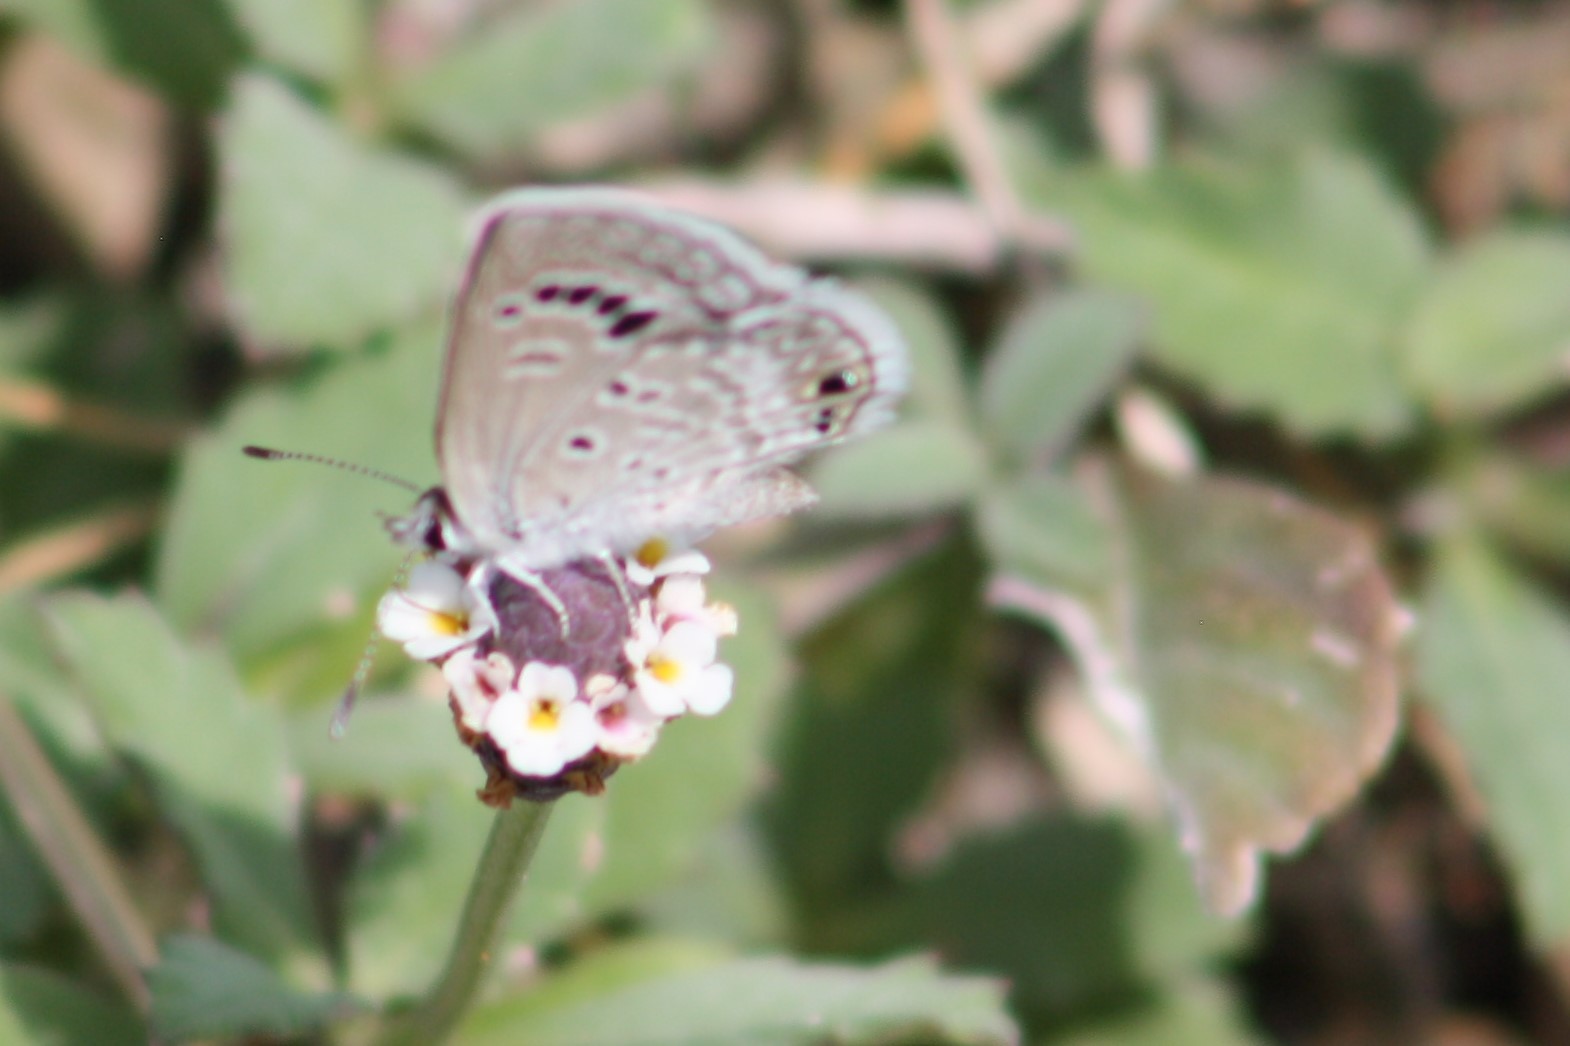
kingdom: Animalia
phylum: Arthropoda
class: Insecta
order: Lepidoptera
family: Lycaenidae
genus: Echinargus
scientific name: Echinargus isola
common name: Reakirt's blue
